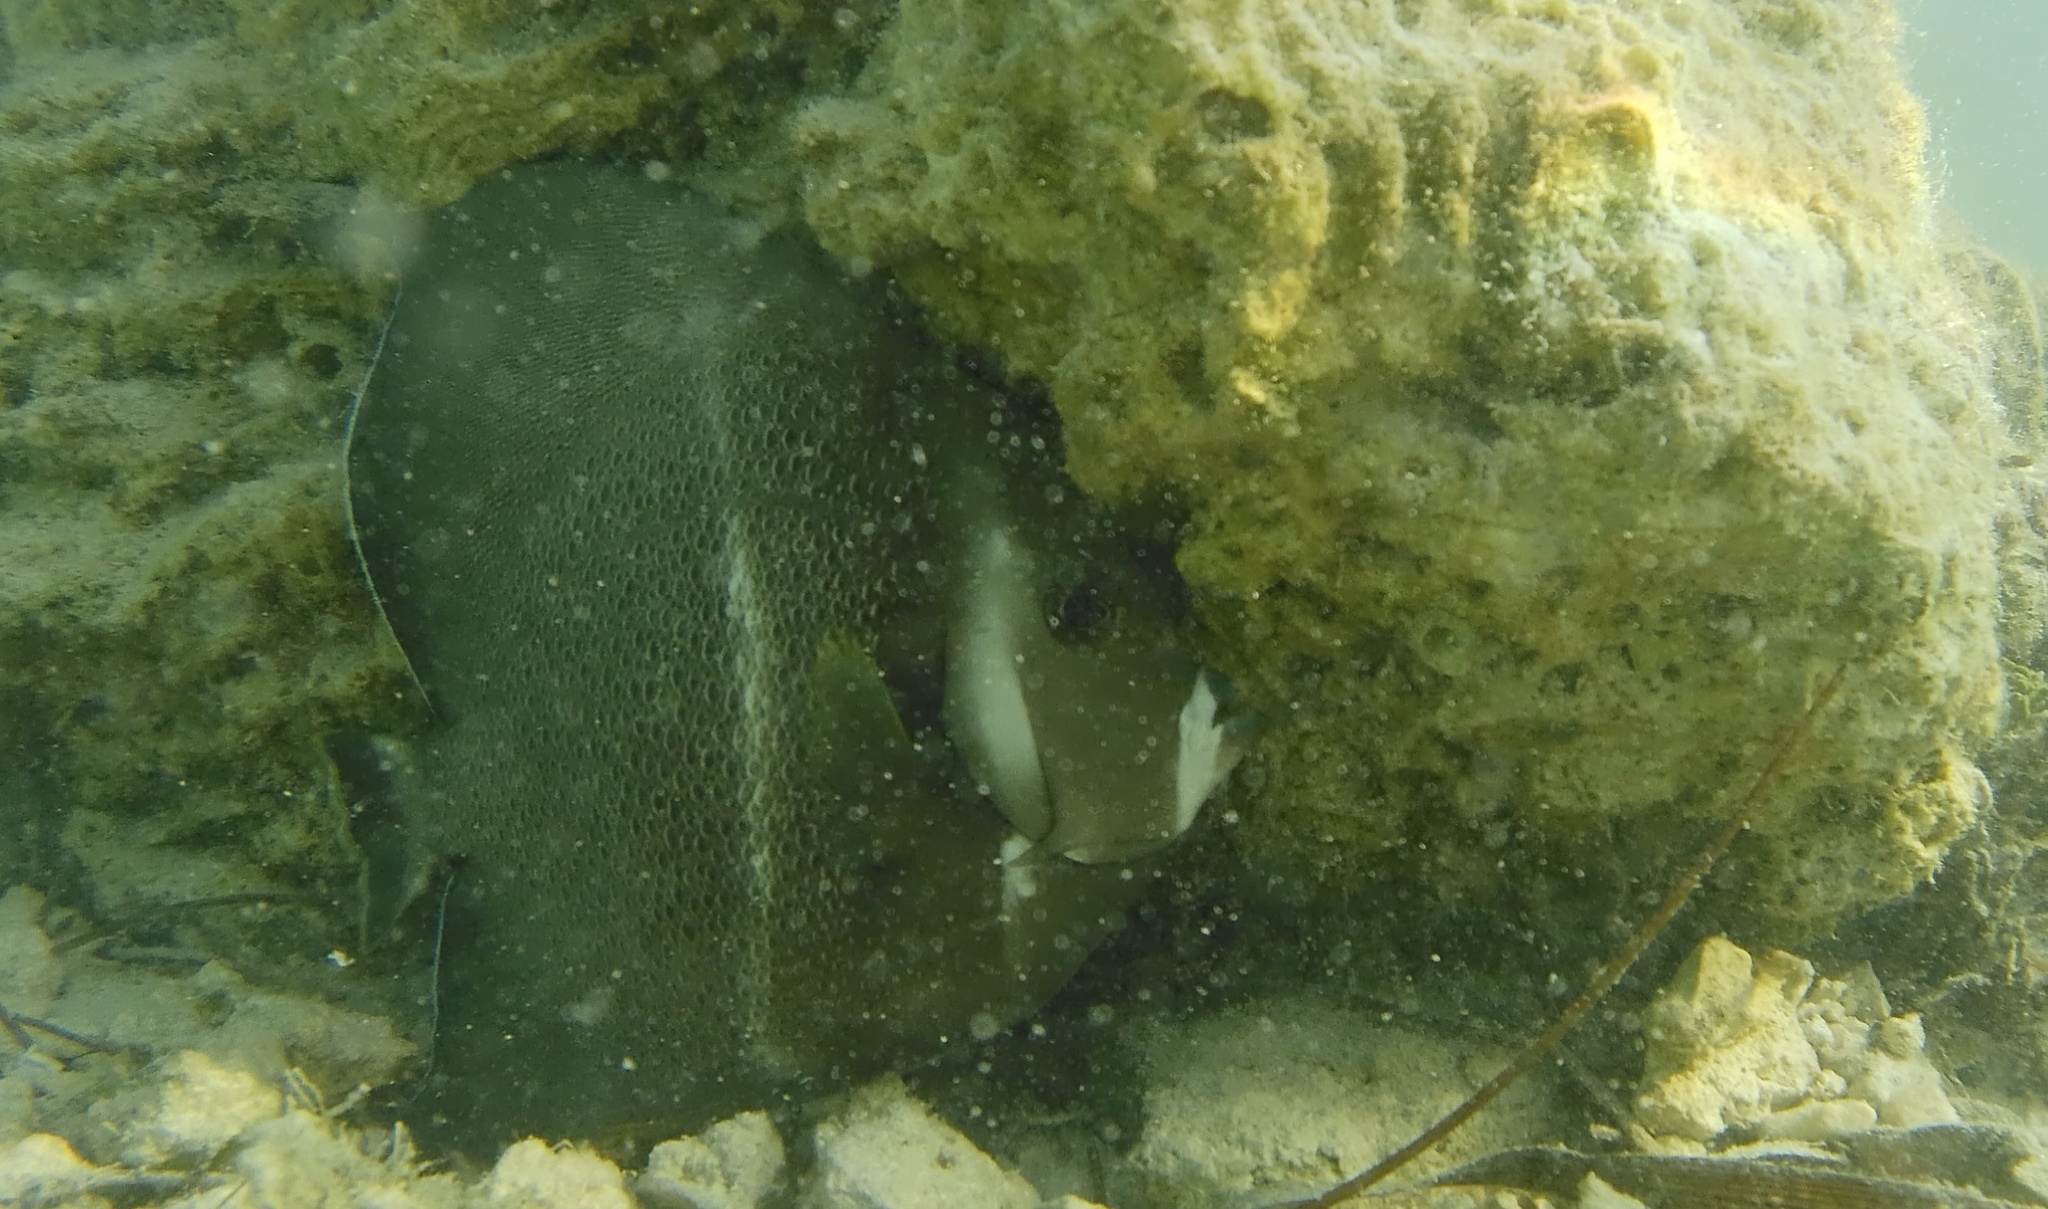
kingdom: Animalia
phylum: Chordata
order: Perciformes
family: Pomacanthidae
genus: Pomacanthus
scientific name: Pomacanthus arcuatus
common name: Gray angelfish
